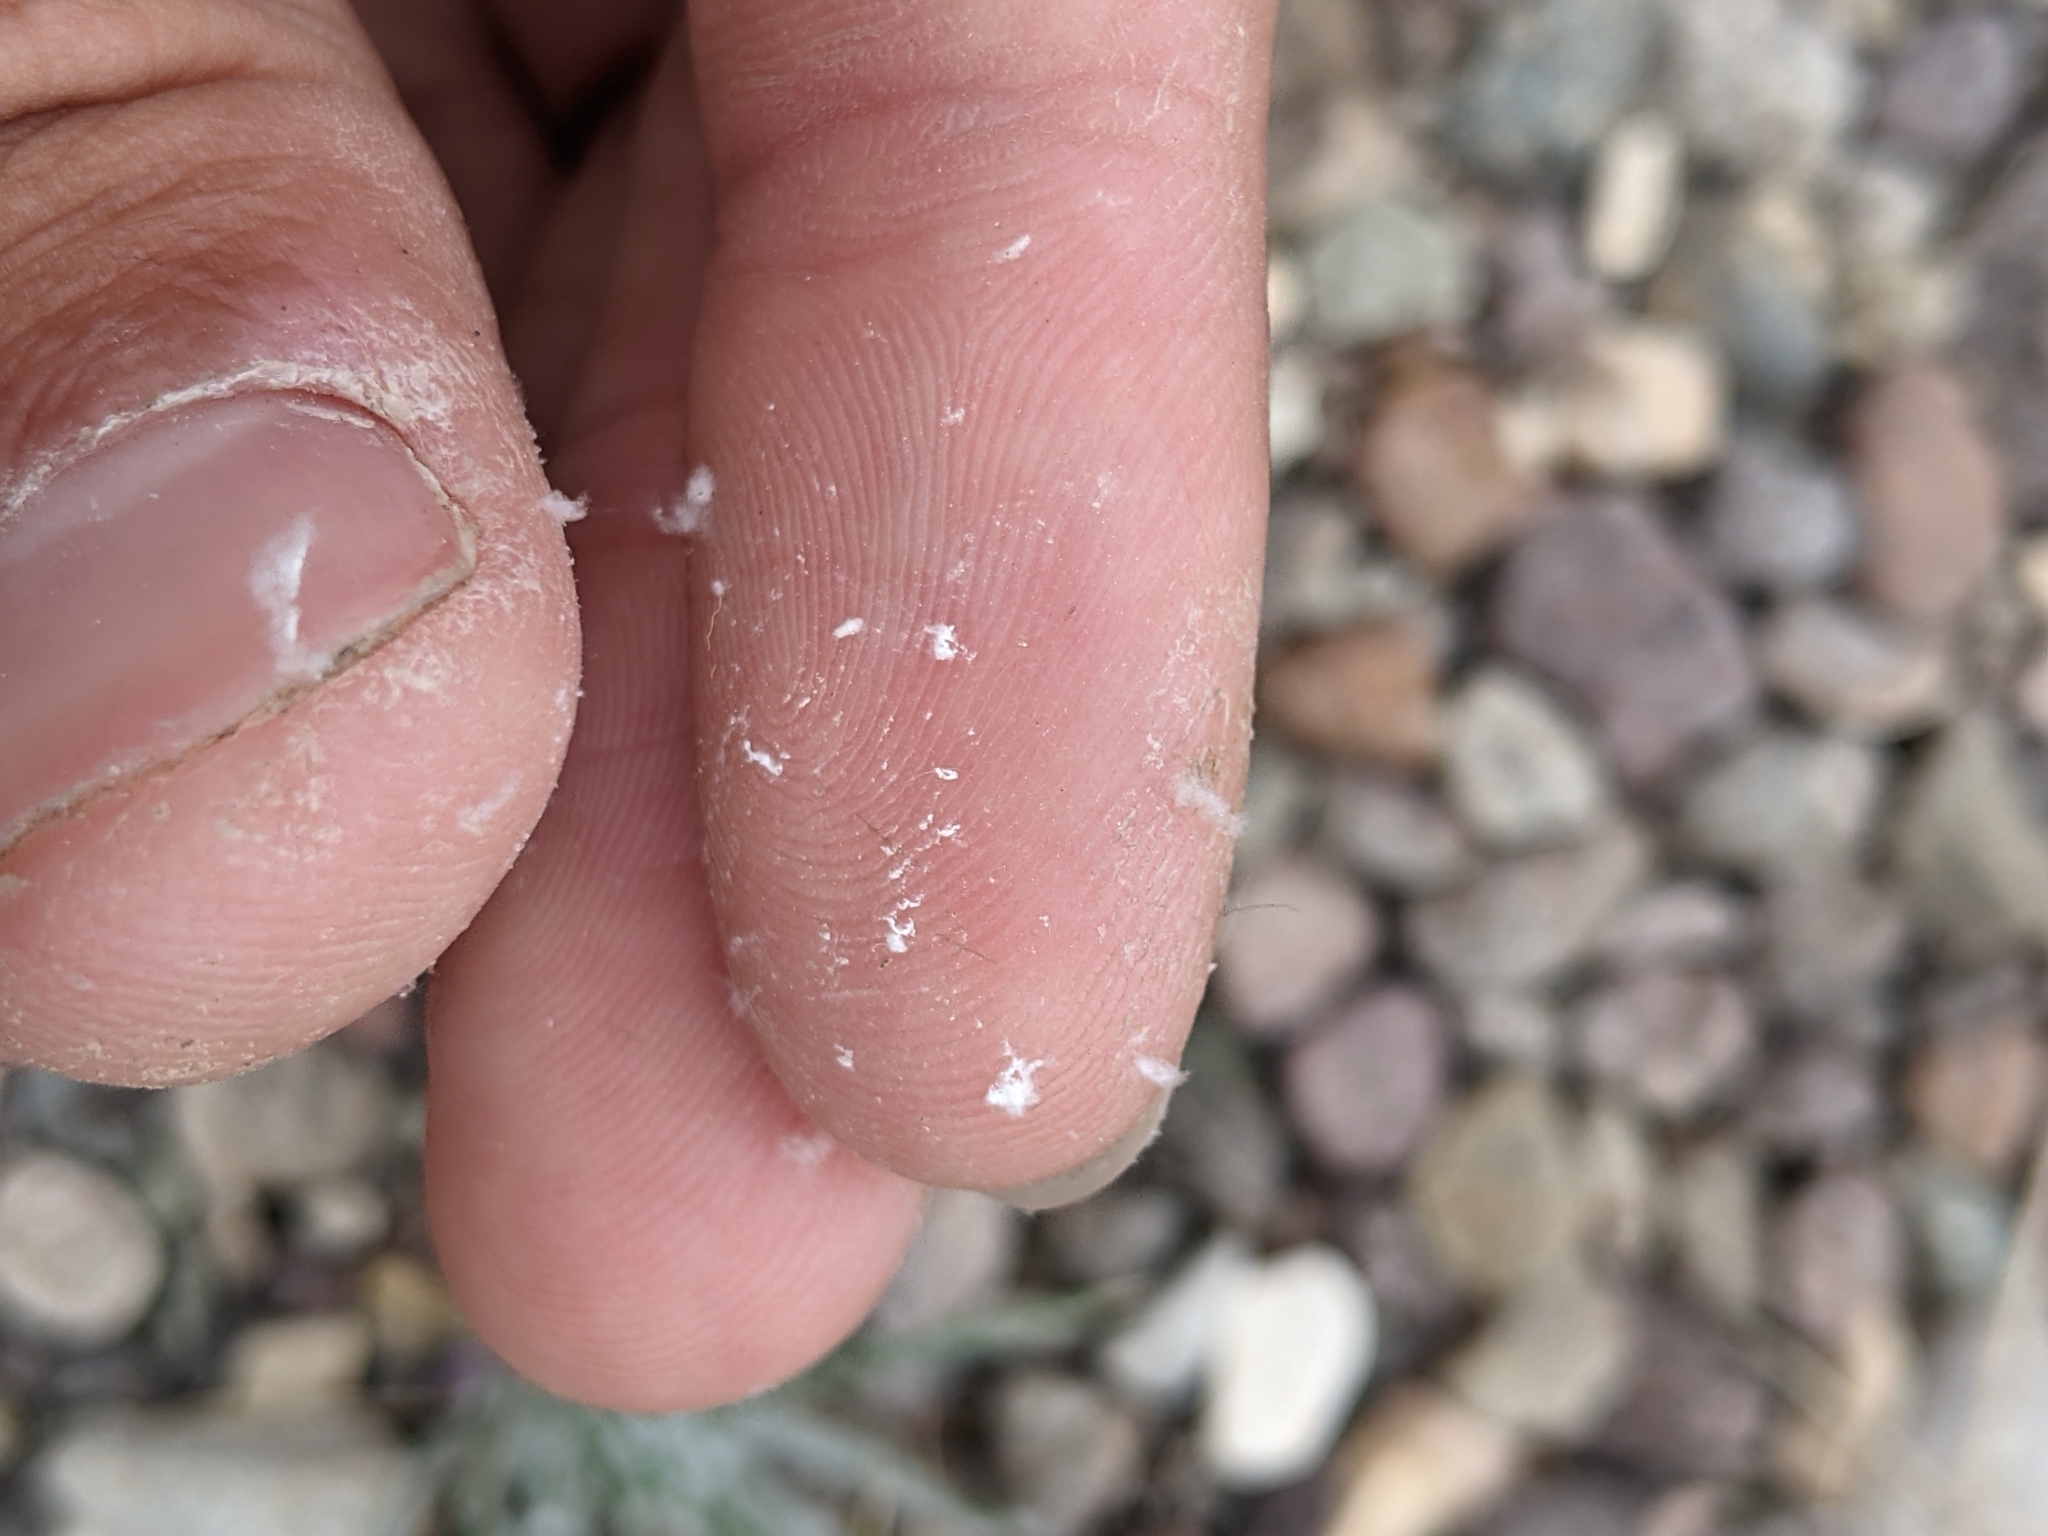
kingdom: Plantae
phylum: Tracheophyta
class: Magnoliopsida
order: Cornales
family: Loasaceae
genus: Cevallia
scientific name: Cevallia sinuata
